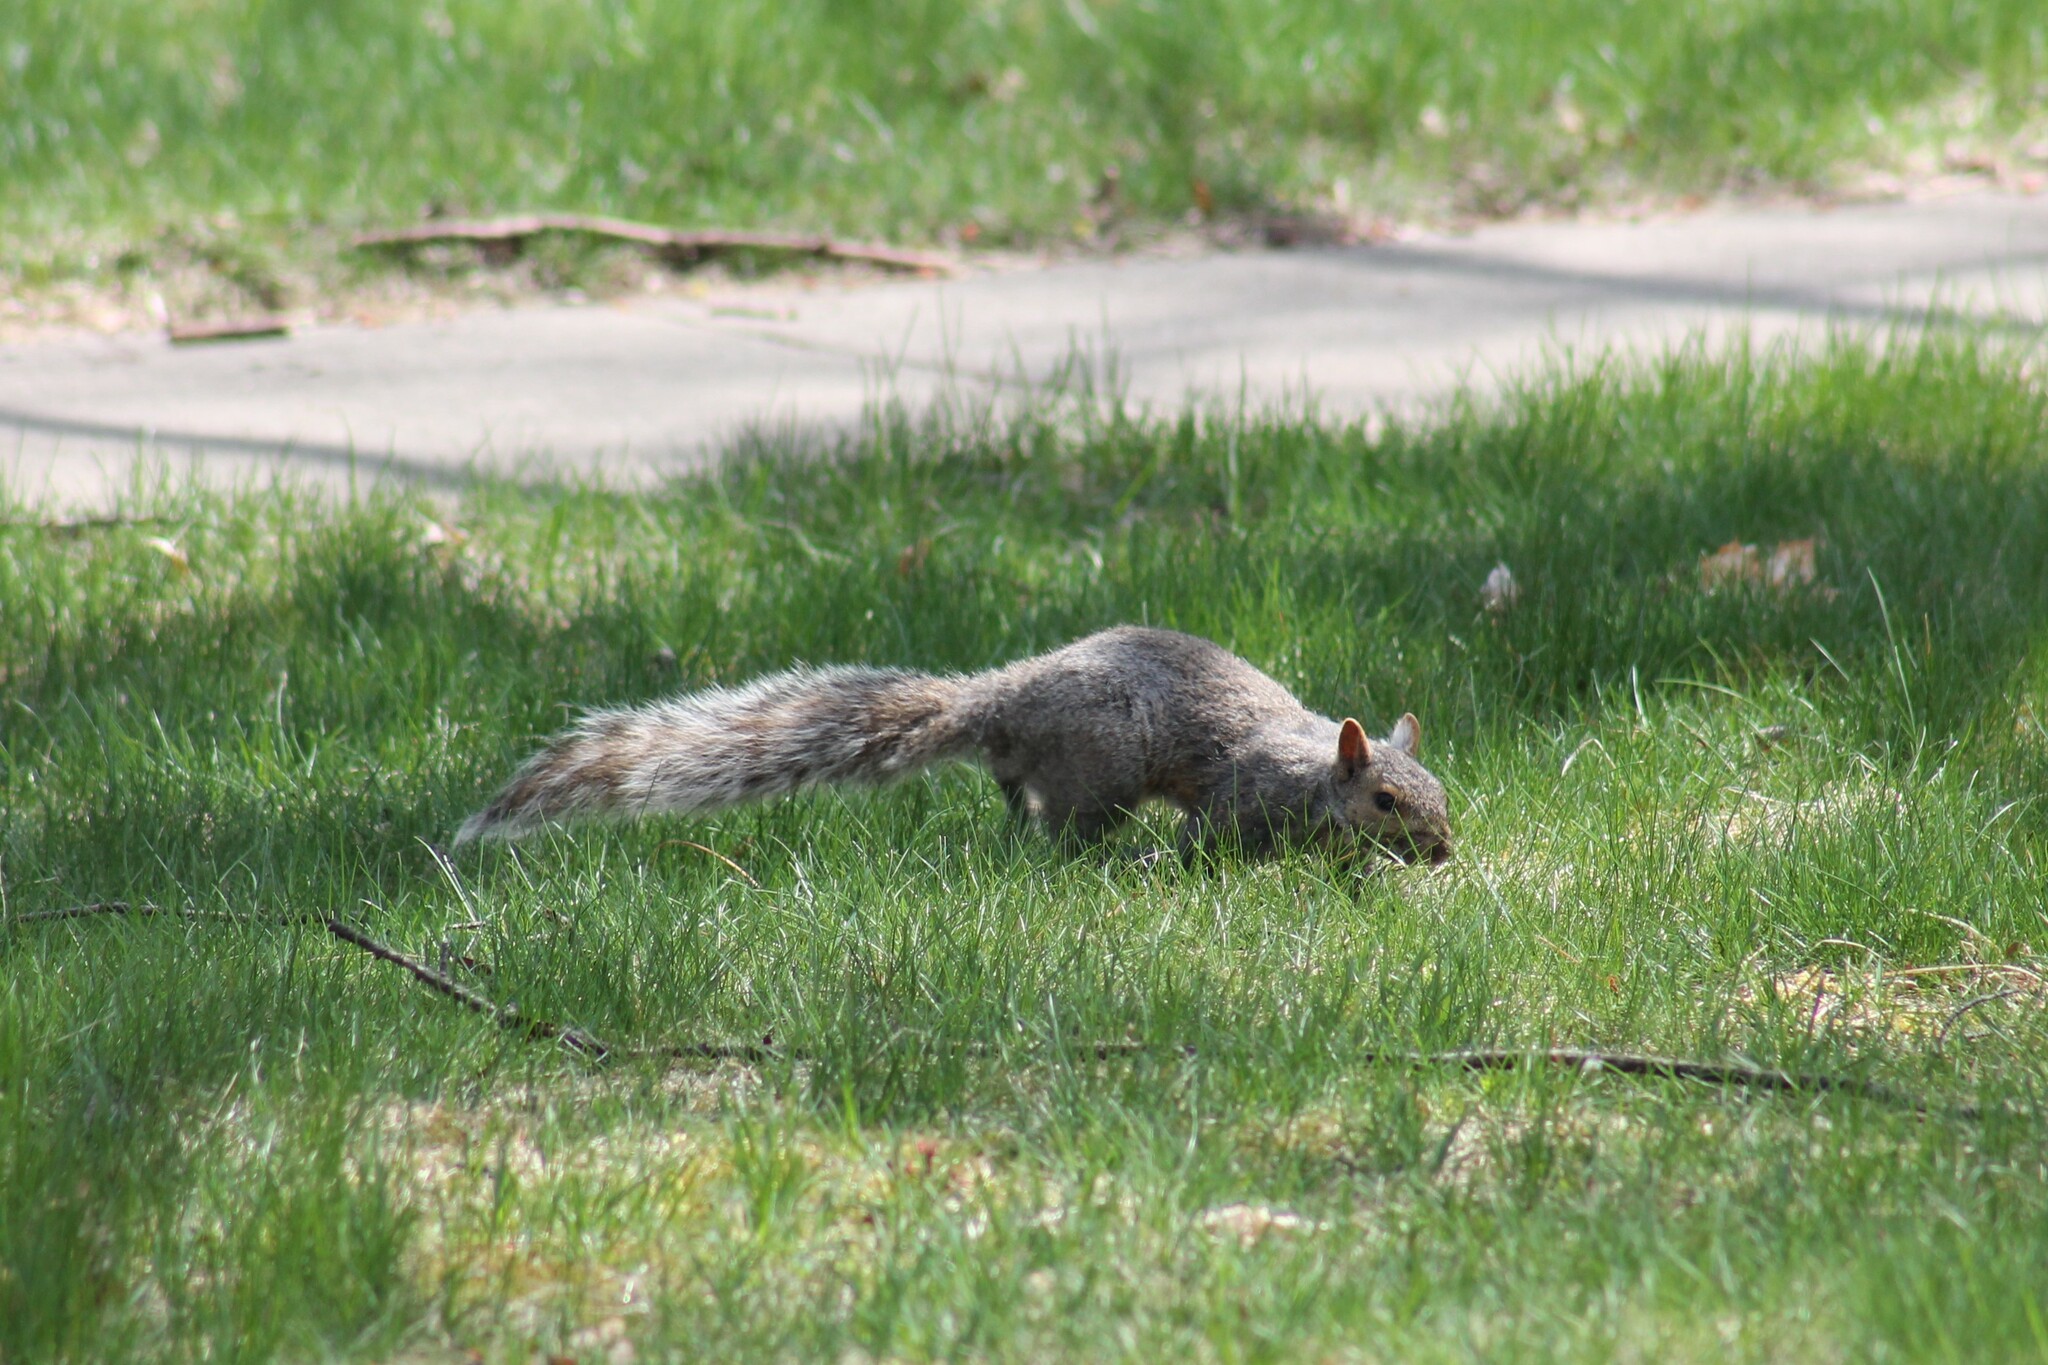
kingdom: Animalia
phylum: Chordata
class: Mammalia
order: Rodentia
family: Sciuridae
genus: Sciurus
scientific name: Sciurus carolinensis
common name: Eastern gray squirrel
